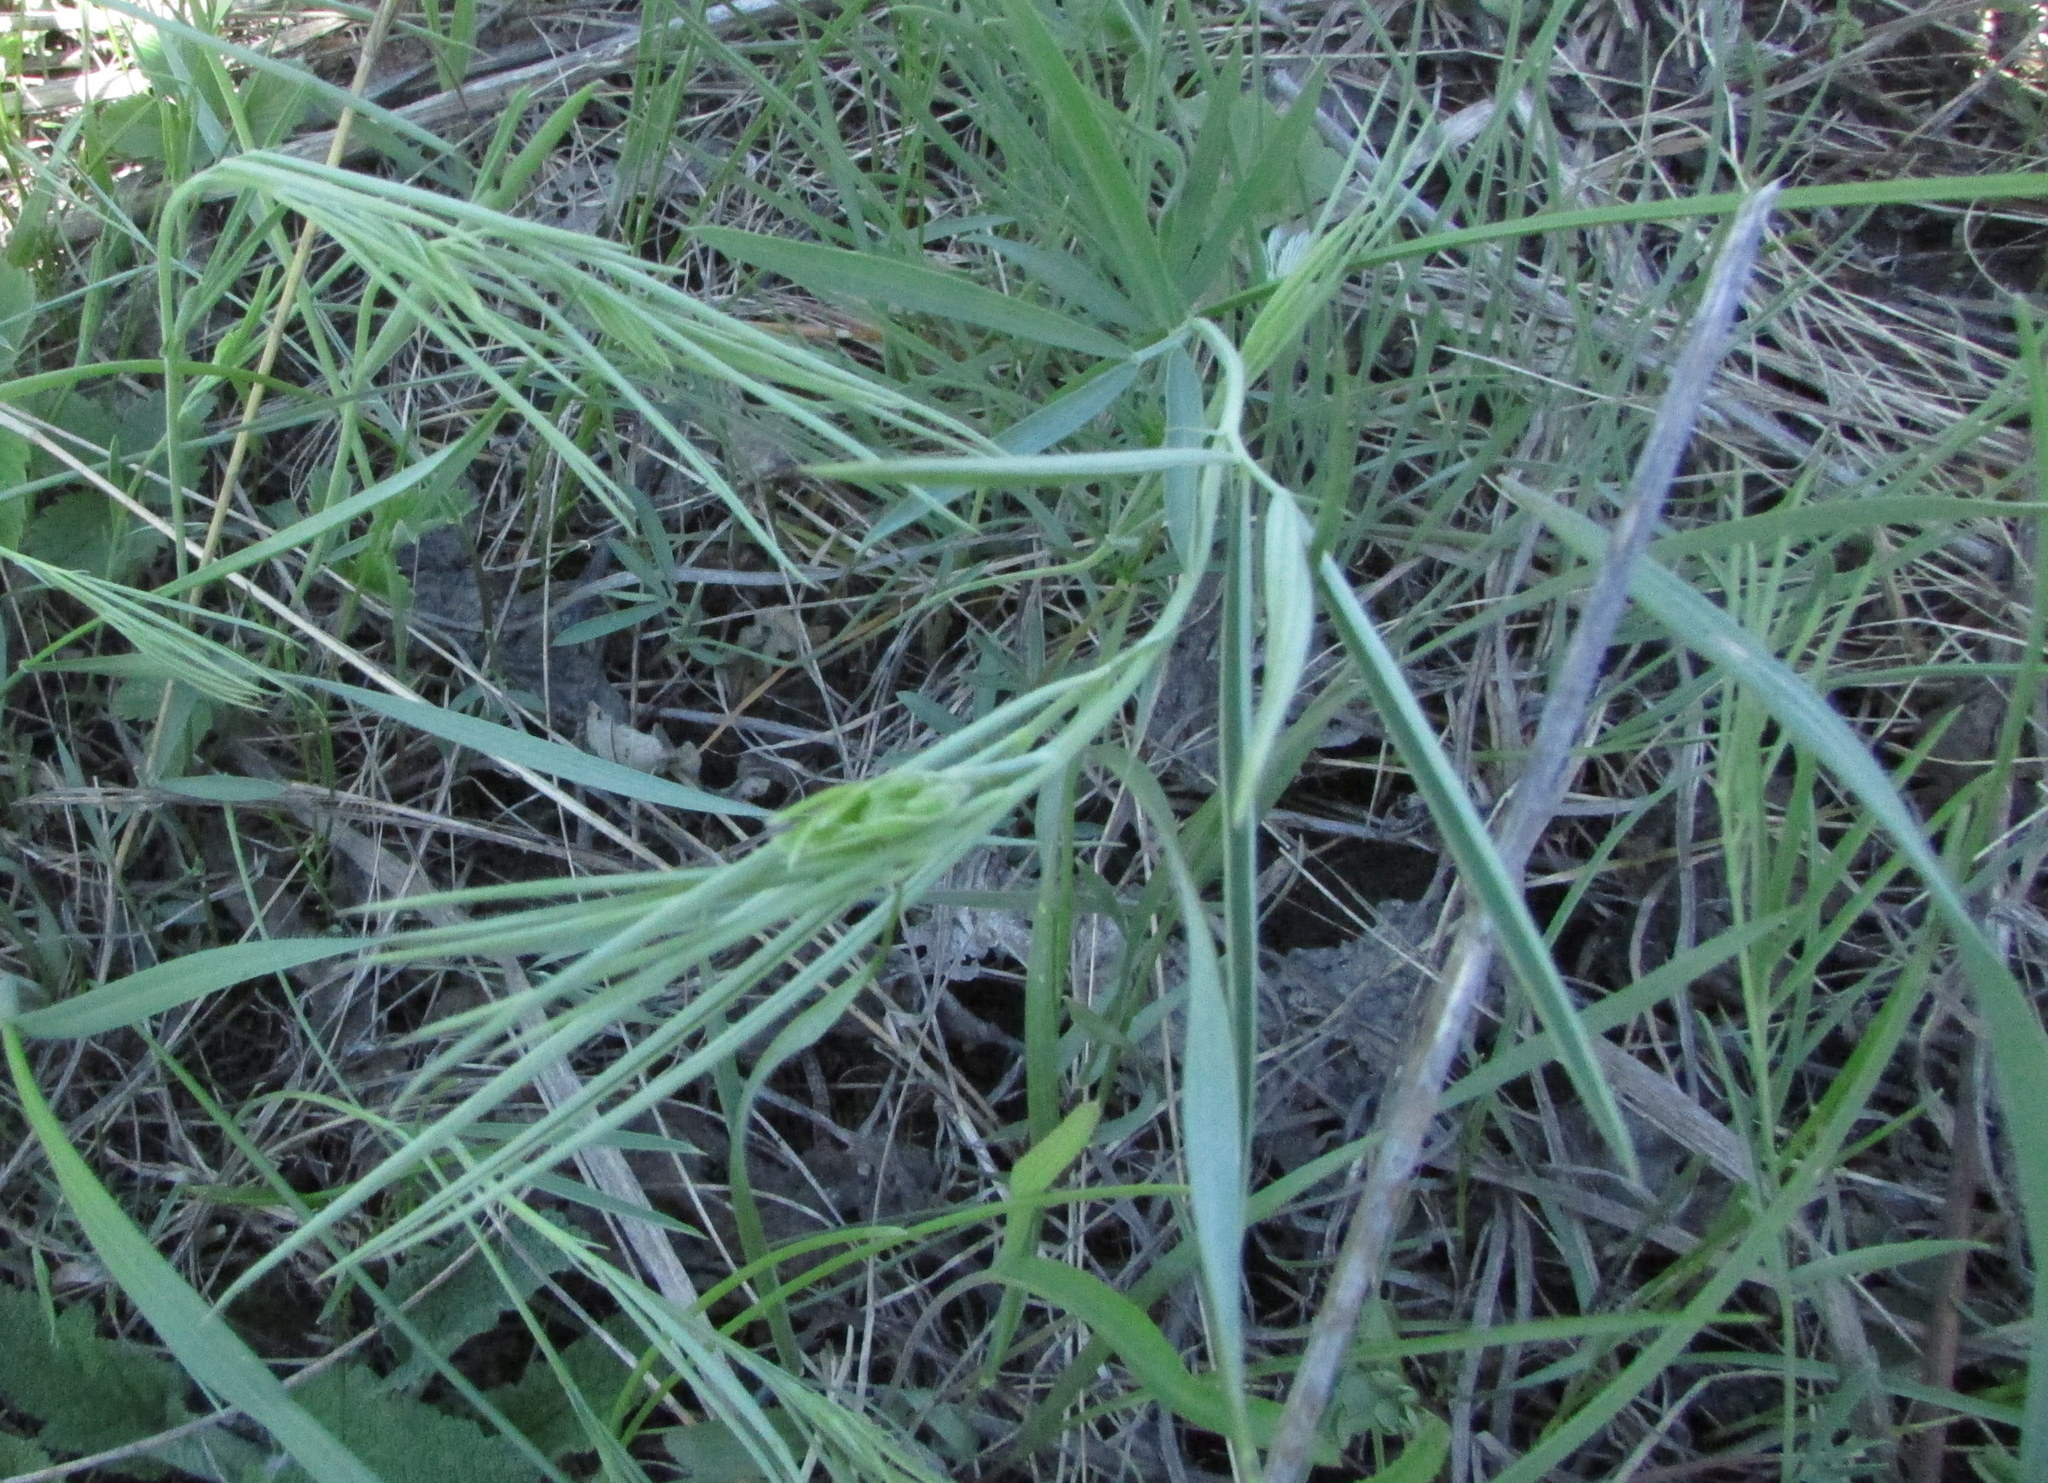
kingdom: Plantae
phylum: Tracheophyta
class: Magnoliopsida
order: Fabales
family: Fabaceae
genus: Lathyrus
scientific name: Lathyrus pallescens
